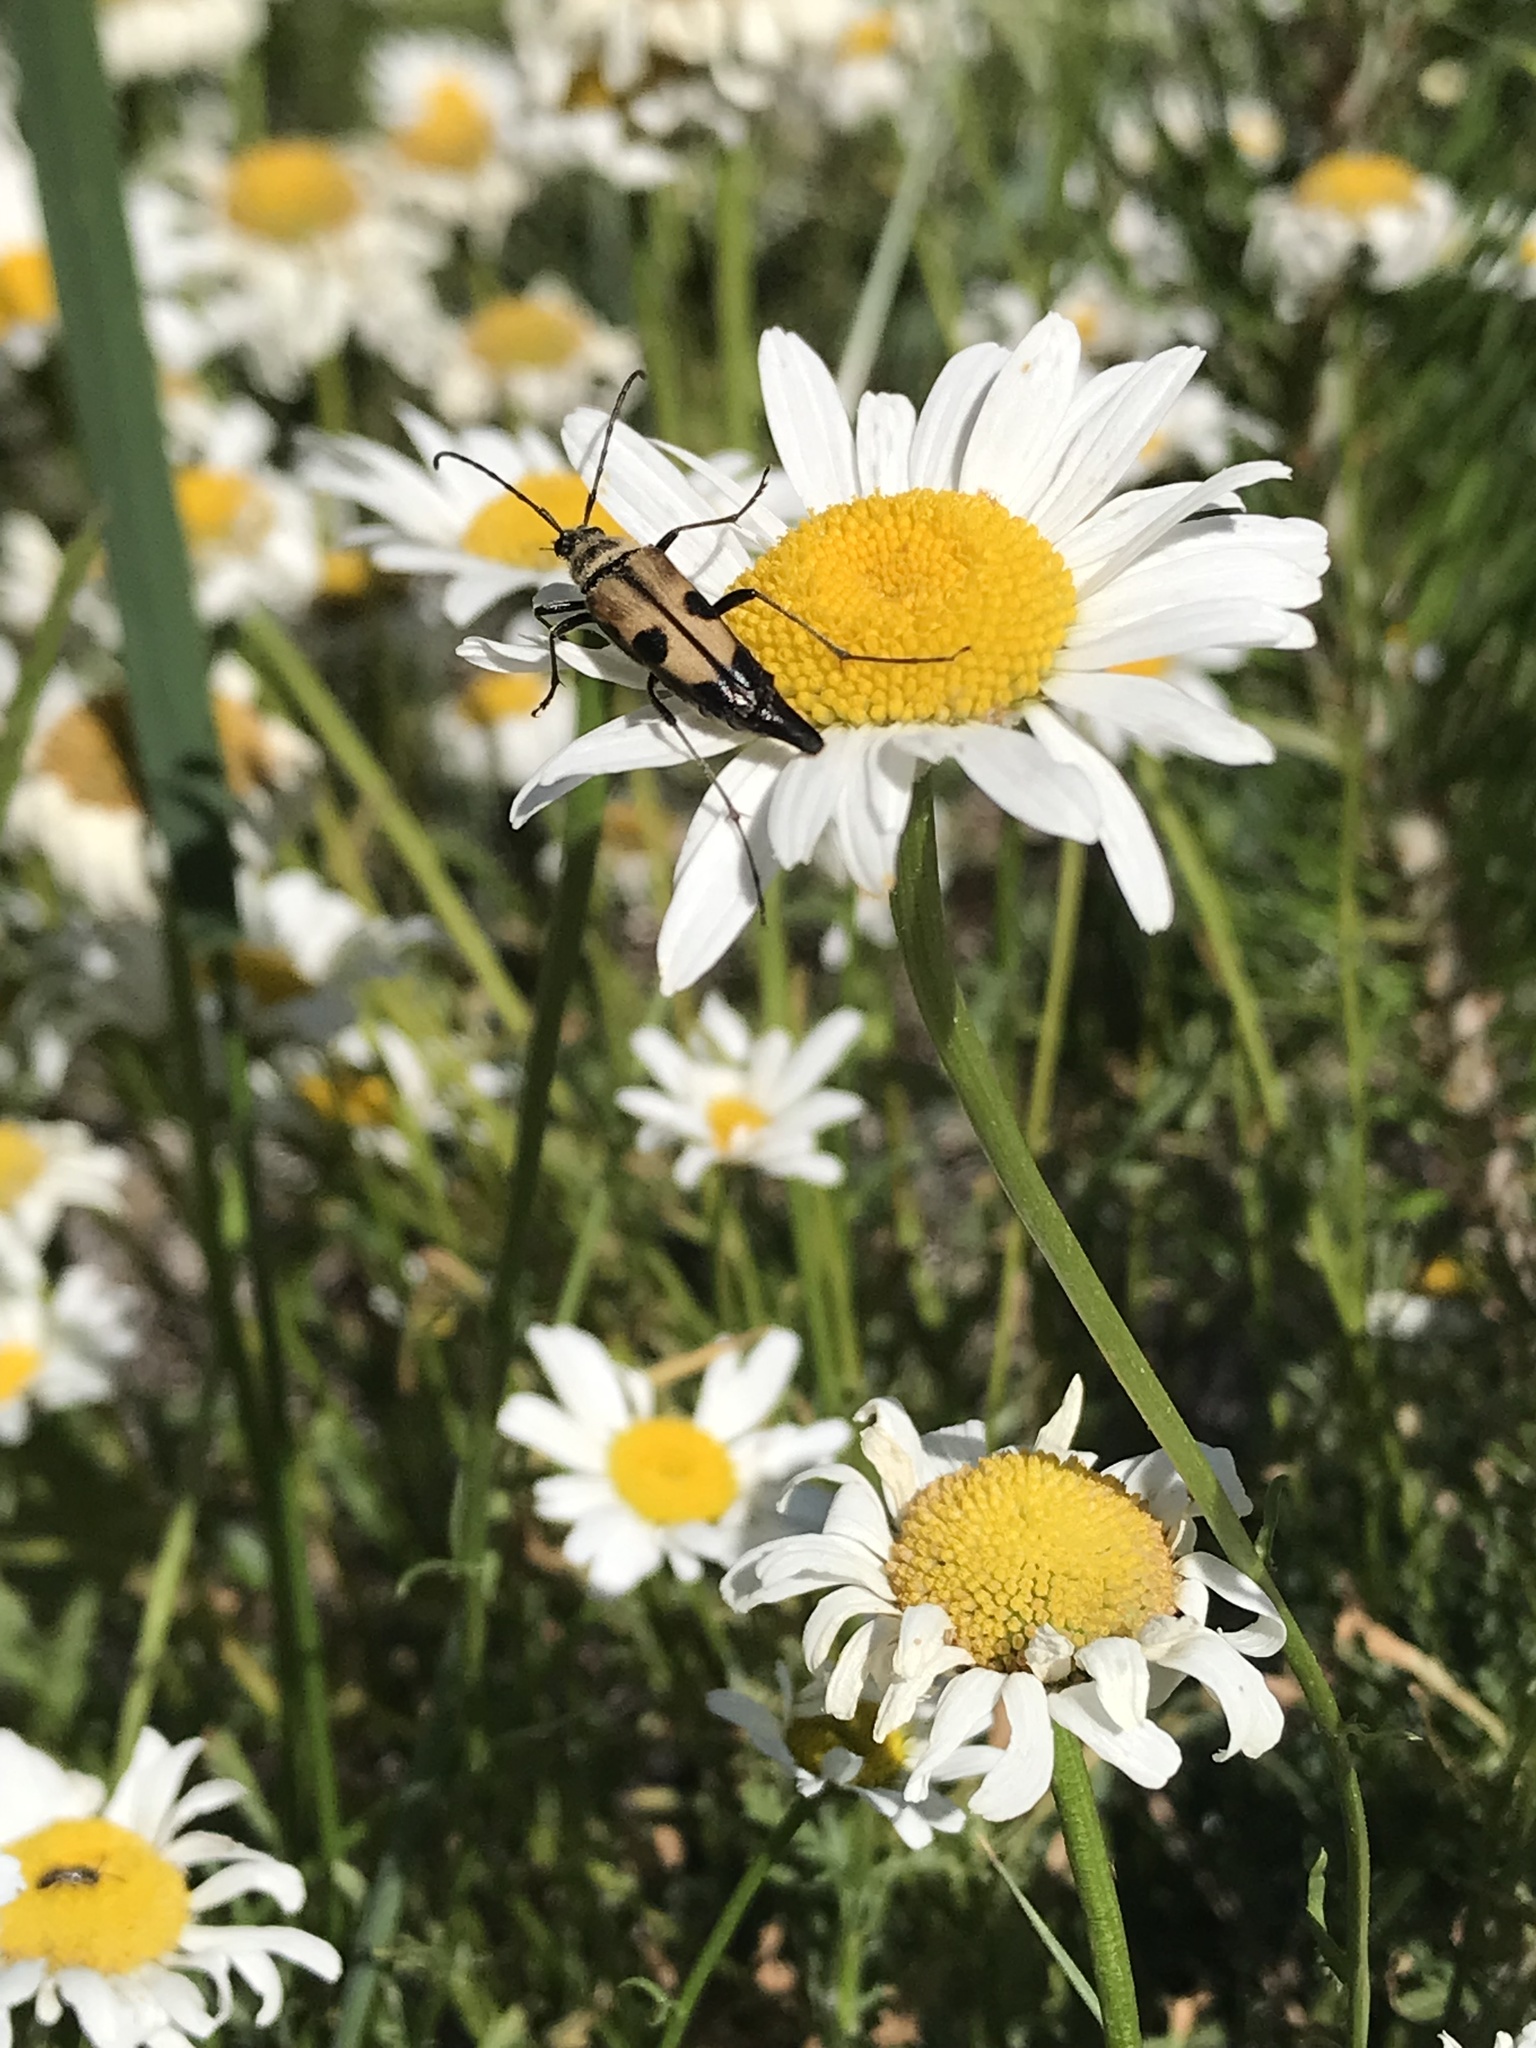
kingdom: Animalia
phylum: Arthropoda
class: Insecta
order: Coleoptera
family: Cerambycidae
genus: Etorofus
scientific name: Etorofus
